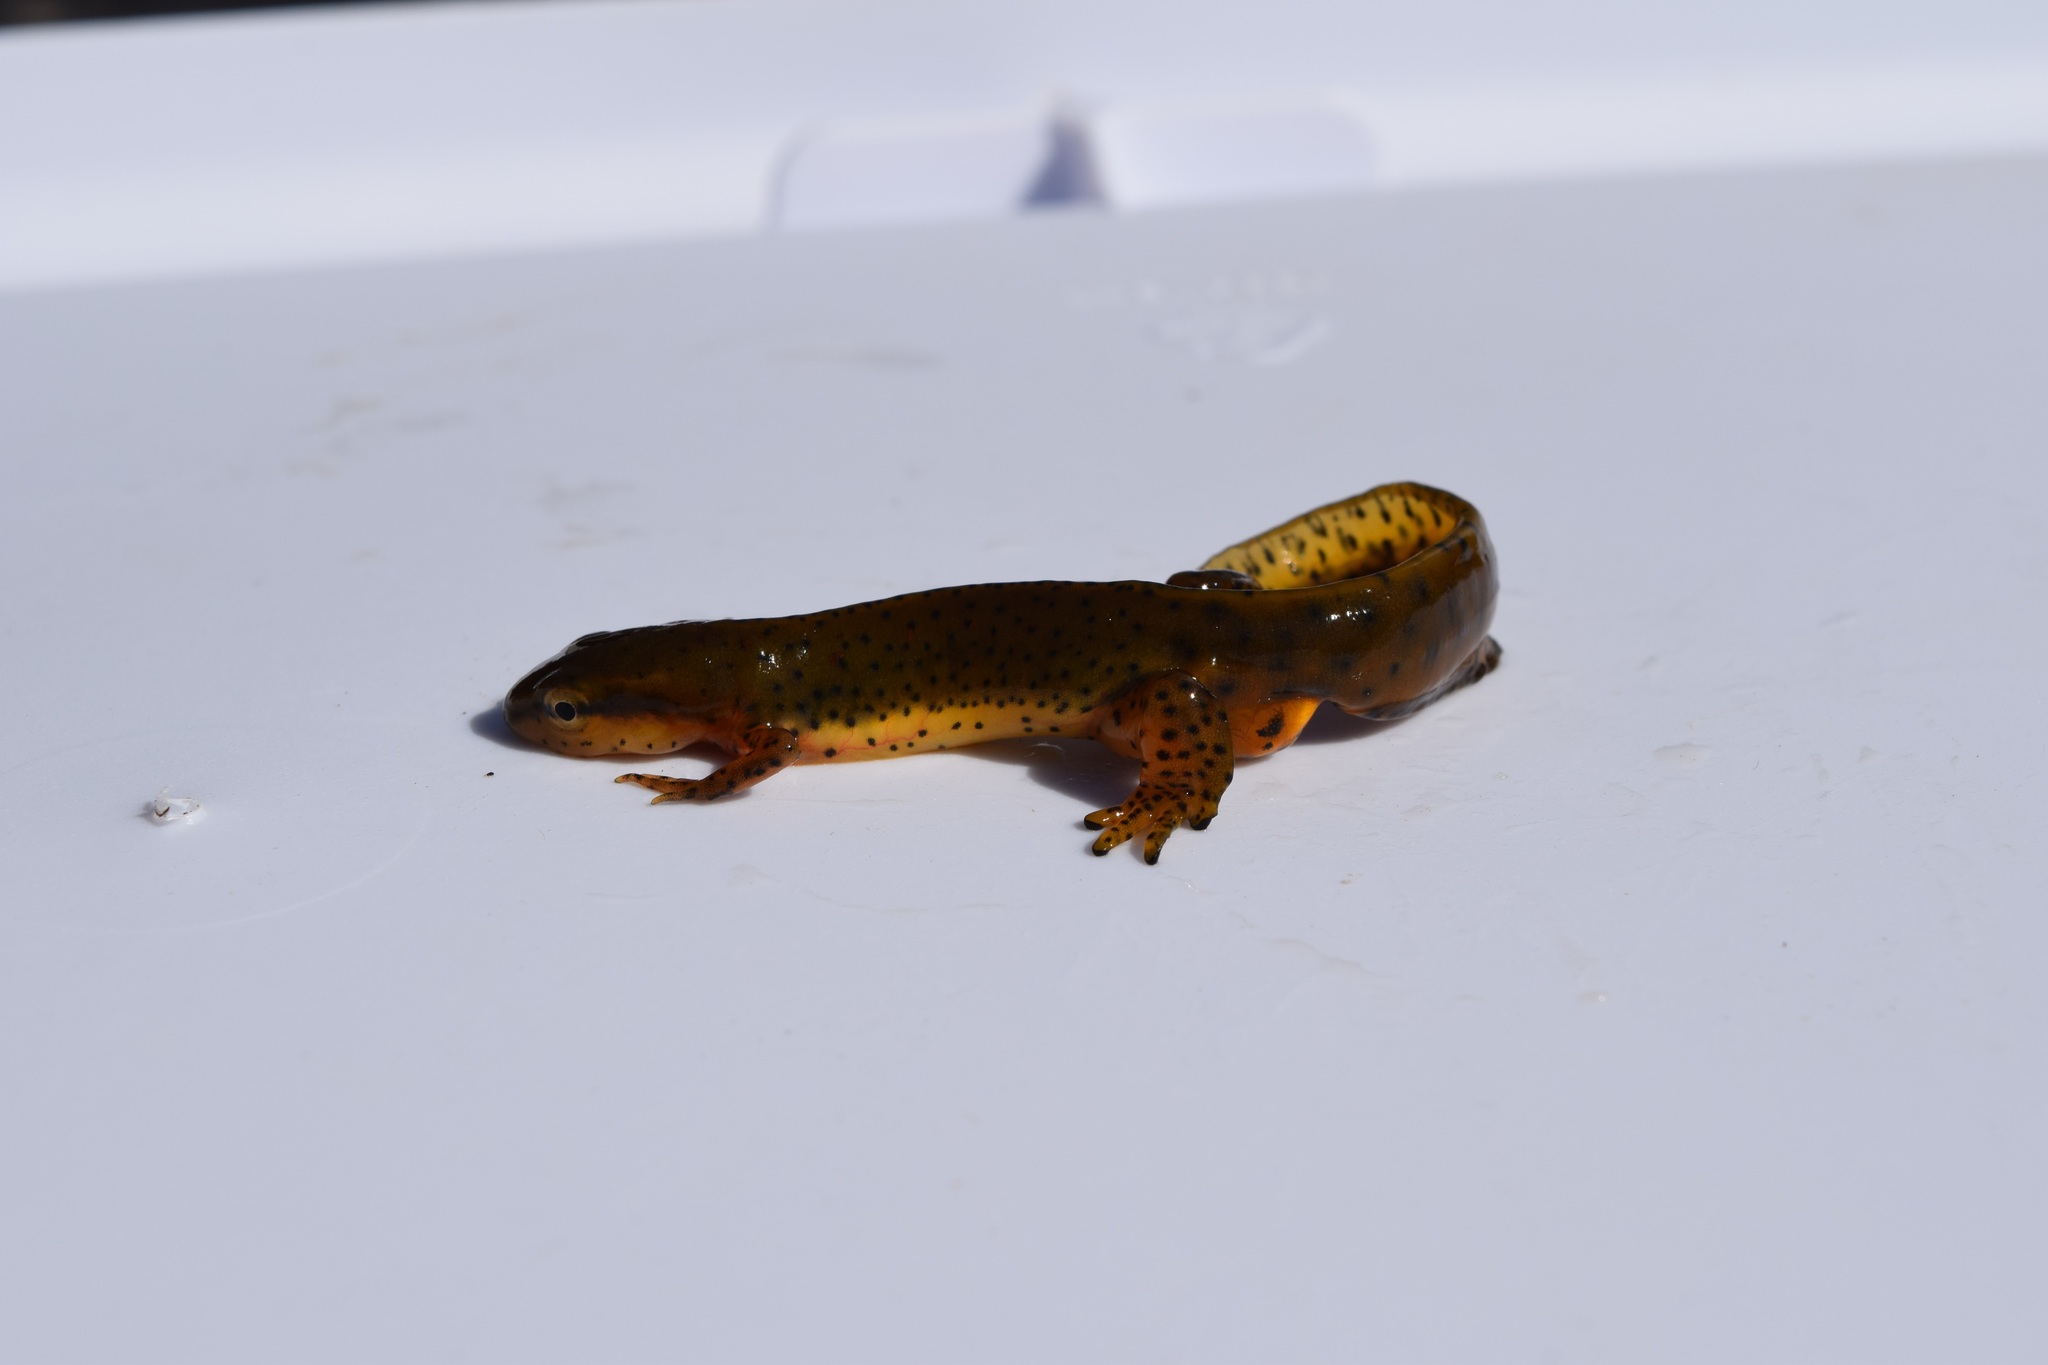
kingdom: Animalia
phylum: Chordata
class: Amphibia
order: Caudata
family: Salamandridae
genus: Notophthalmus
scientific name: Notophthalmus viridescens
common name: Eastern newt
